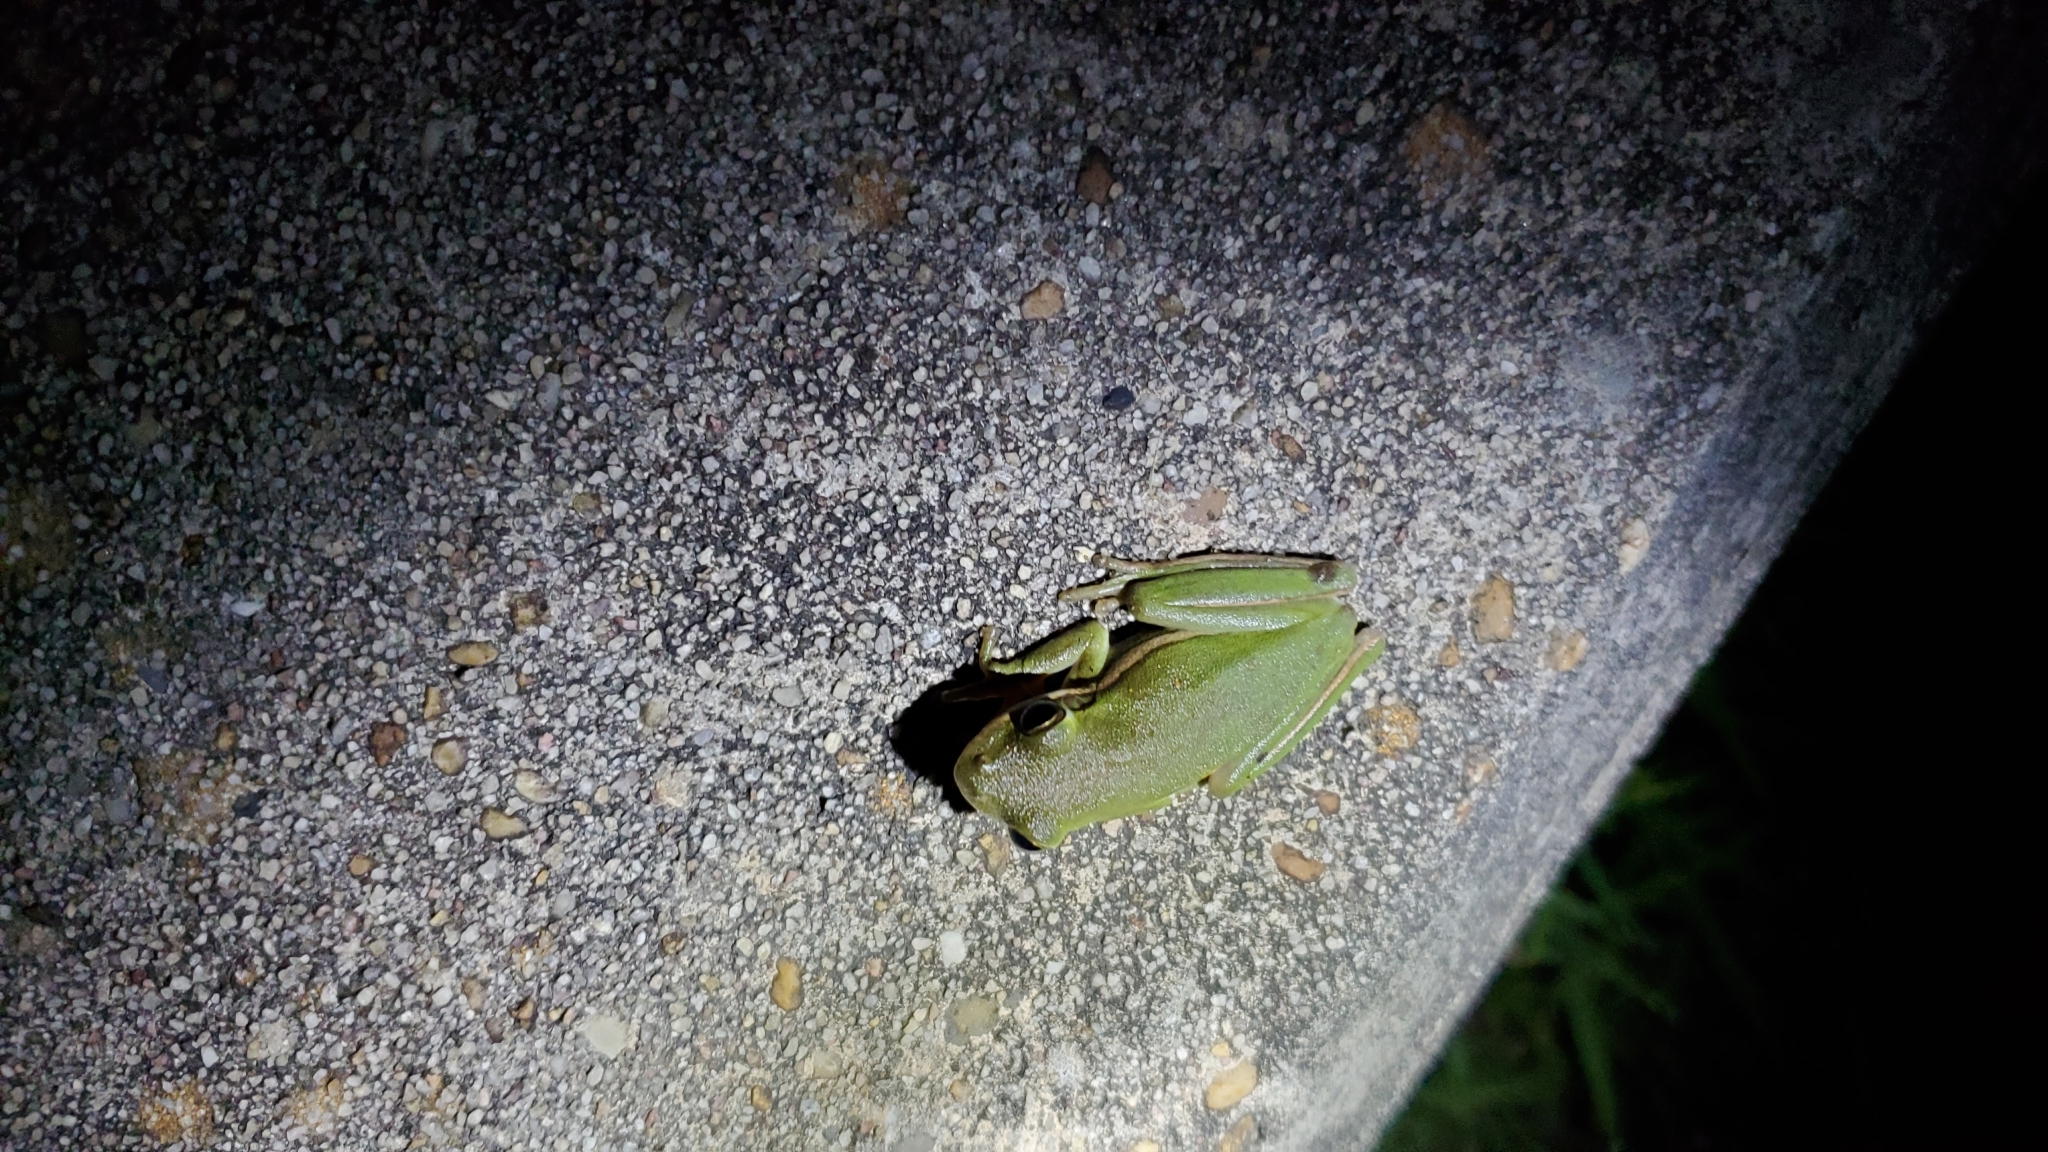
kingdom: Animalia
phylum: Chordata
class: Amphibia
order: Anura
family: Hylidae
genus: Dryophytes
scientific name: Dryophytes cinereus
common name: Green treefrog
